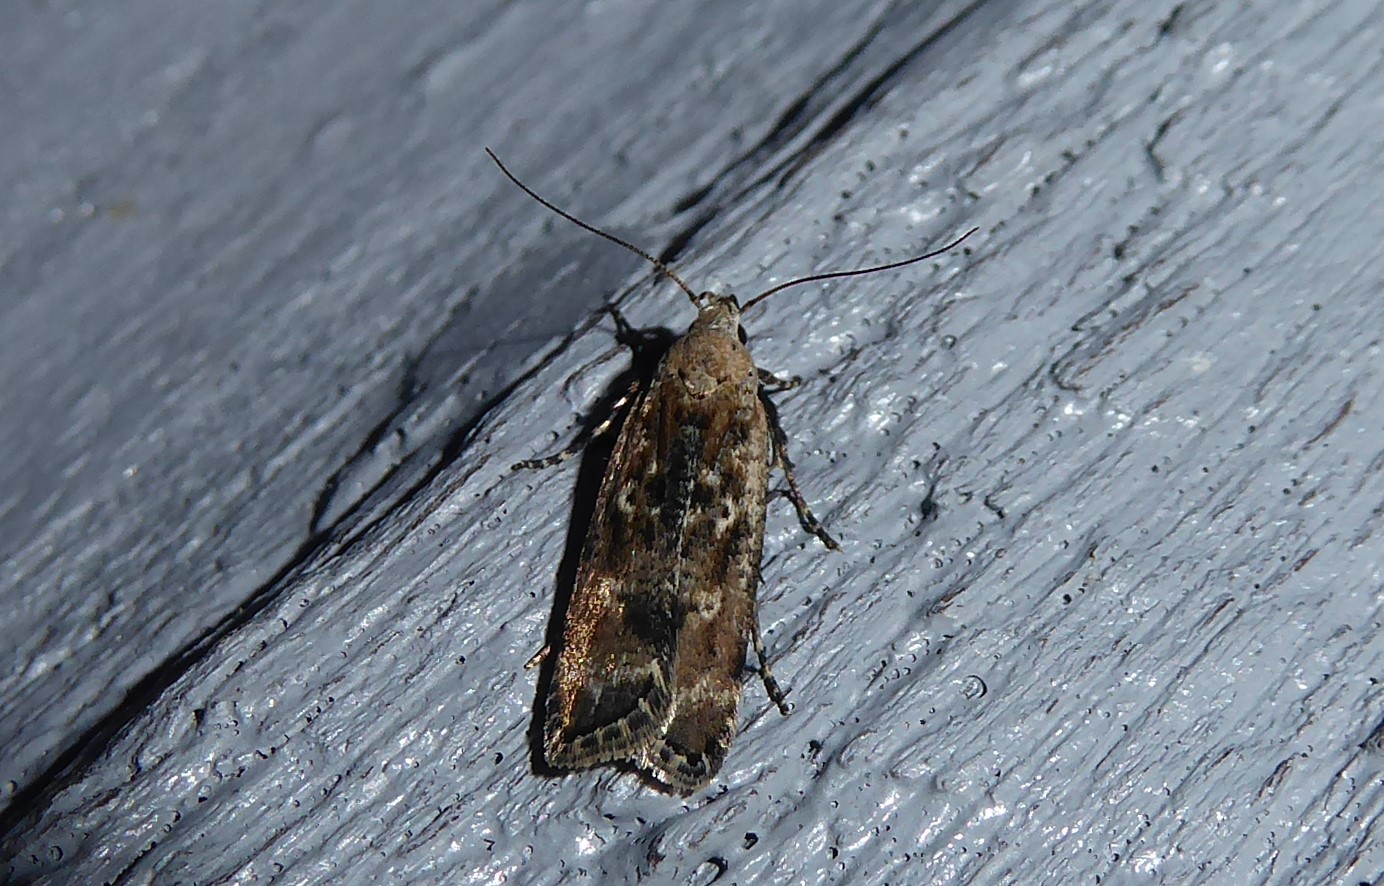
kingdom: Animalia
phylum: Arthropoda
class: Insecta
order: Lepidoptera
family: Gelechiidae
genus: Anisoplaca
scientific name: Anisoplaca achyrota
